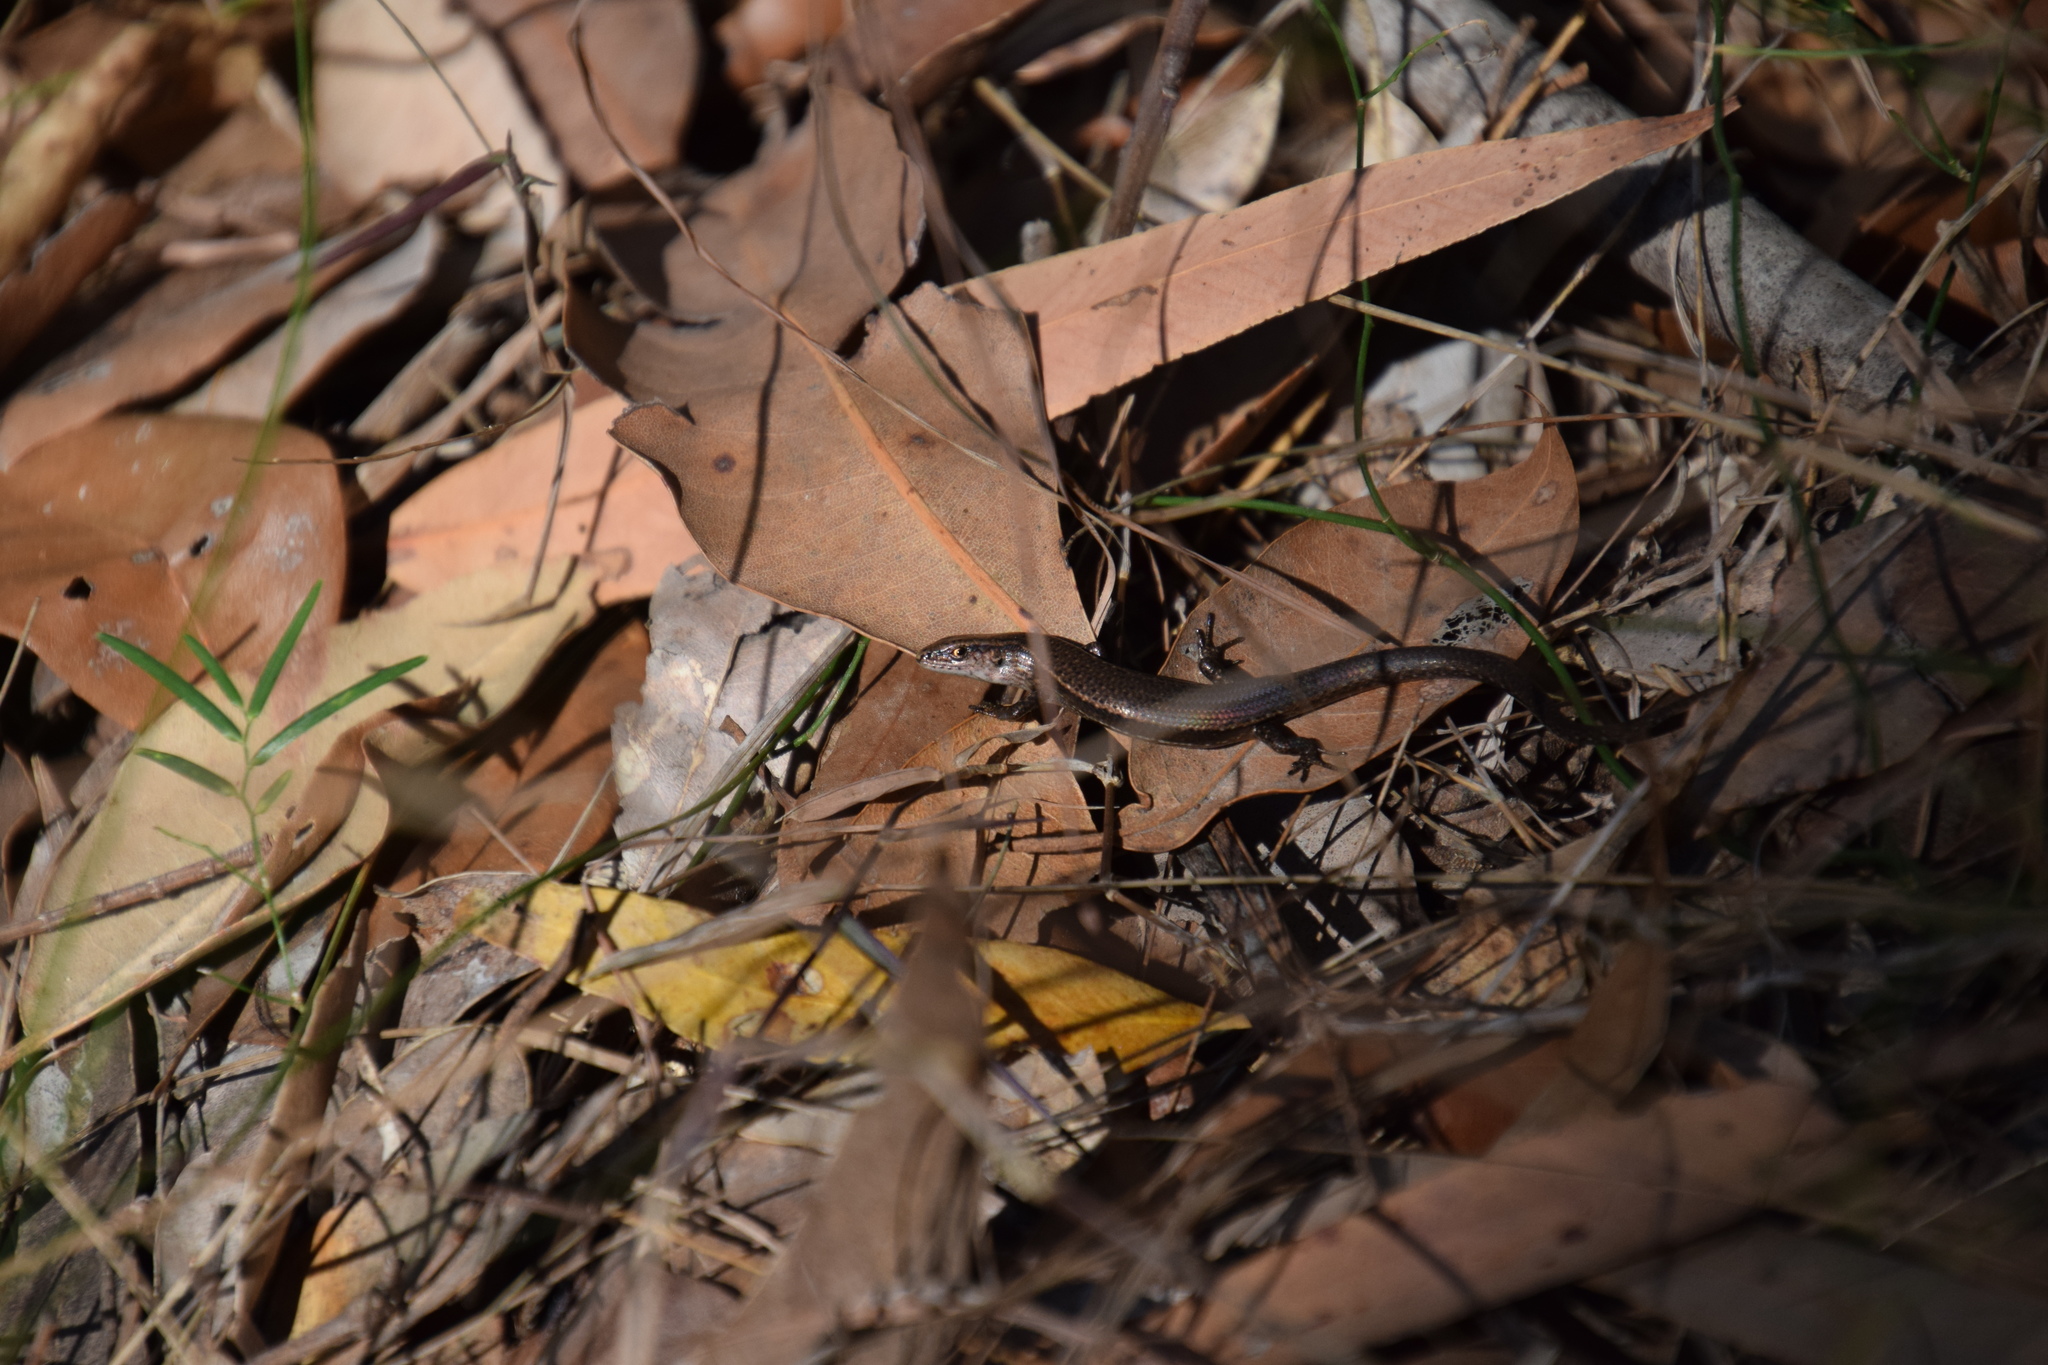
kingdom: Animalia
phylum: Chordata
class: Squamata
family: Scincidae
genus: Lampropholis
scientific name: Lampropholis delicata
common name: Plague skink
